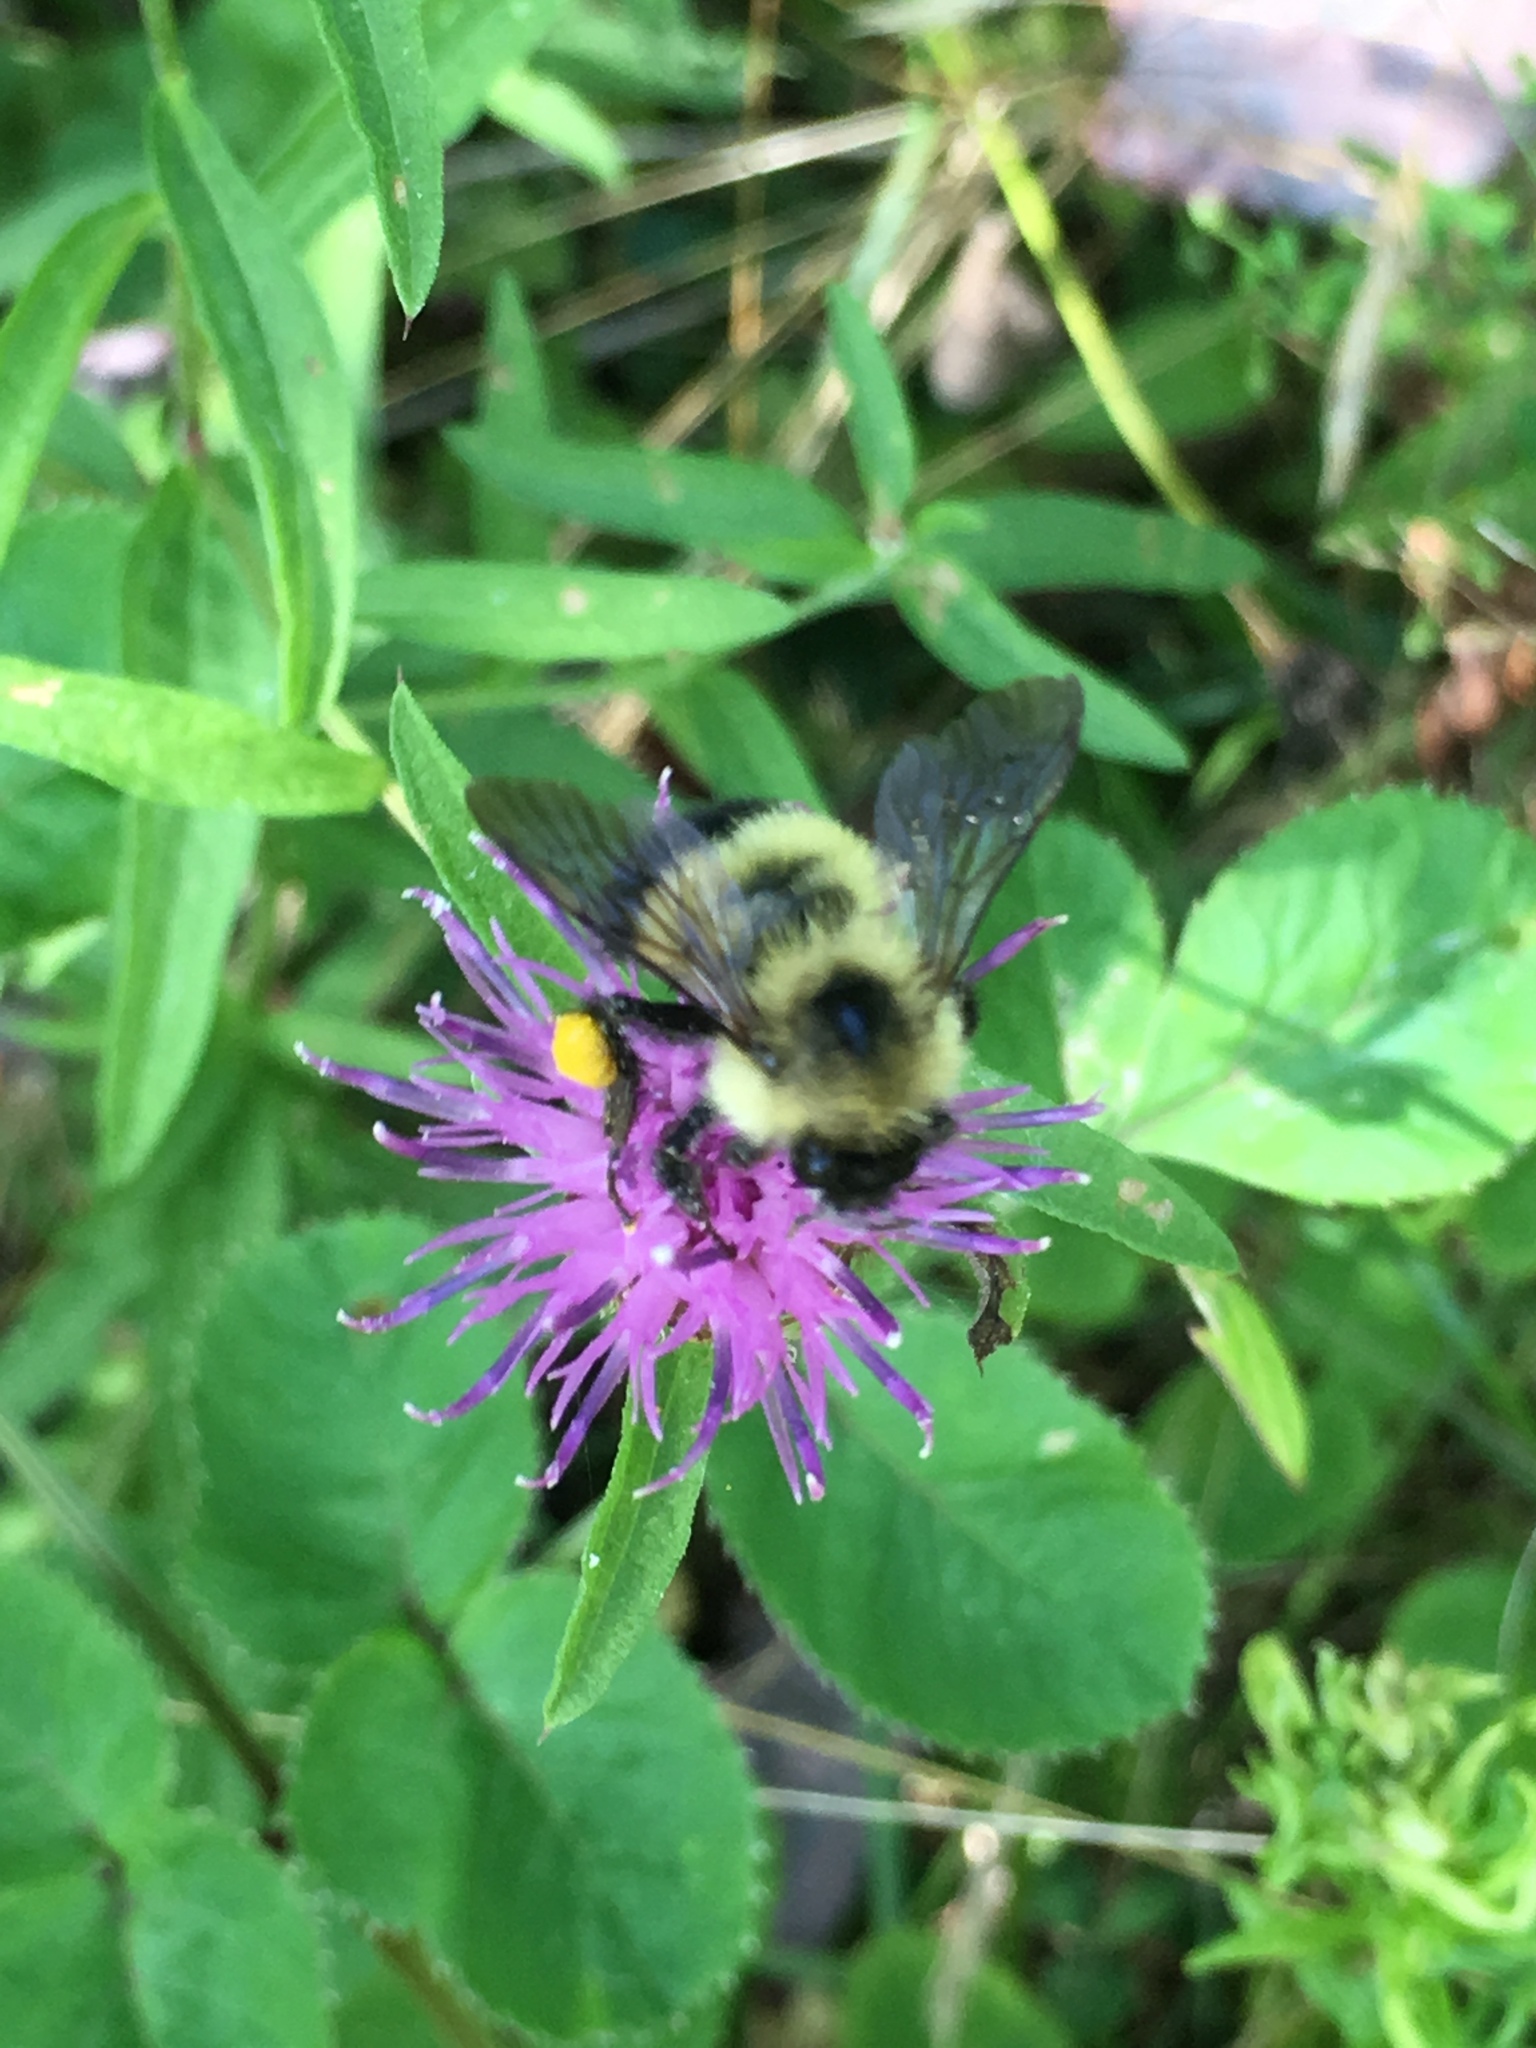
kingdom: Animalia
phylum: Arthropoda
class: Insecta
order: Hymenoptera
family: Apidae
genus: Pyrobombus
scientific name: Pyrobombus
